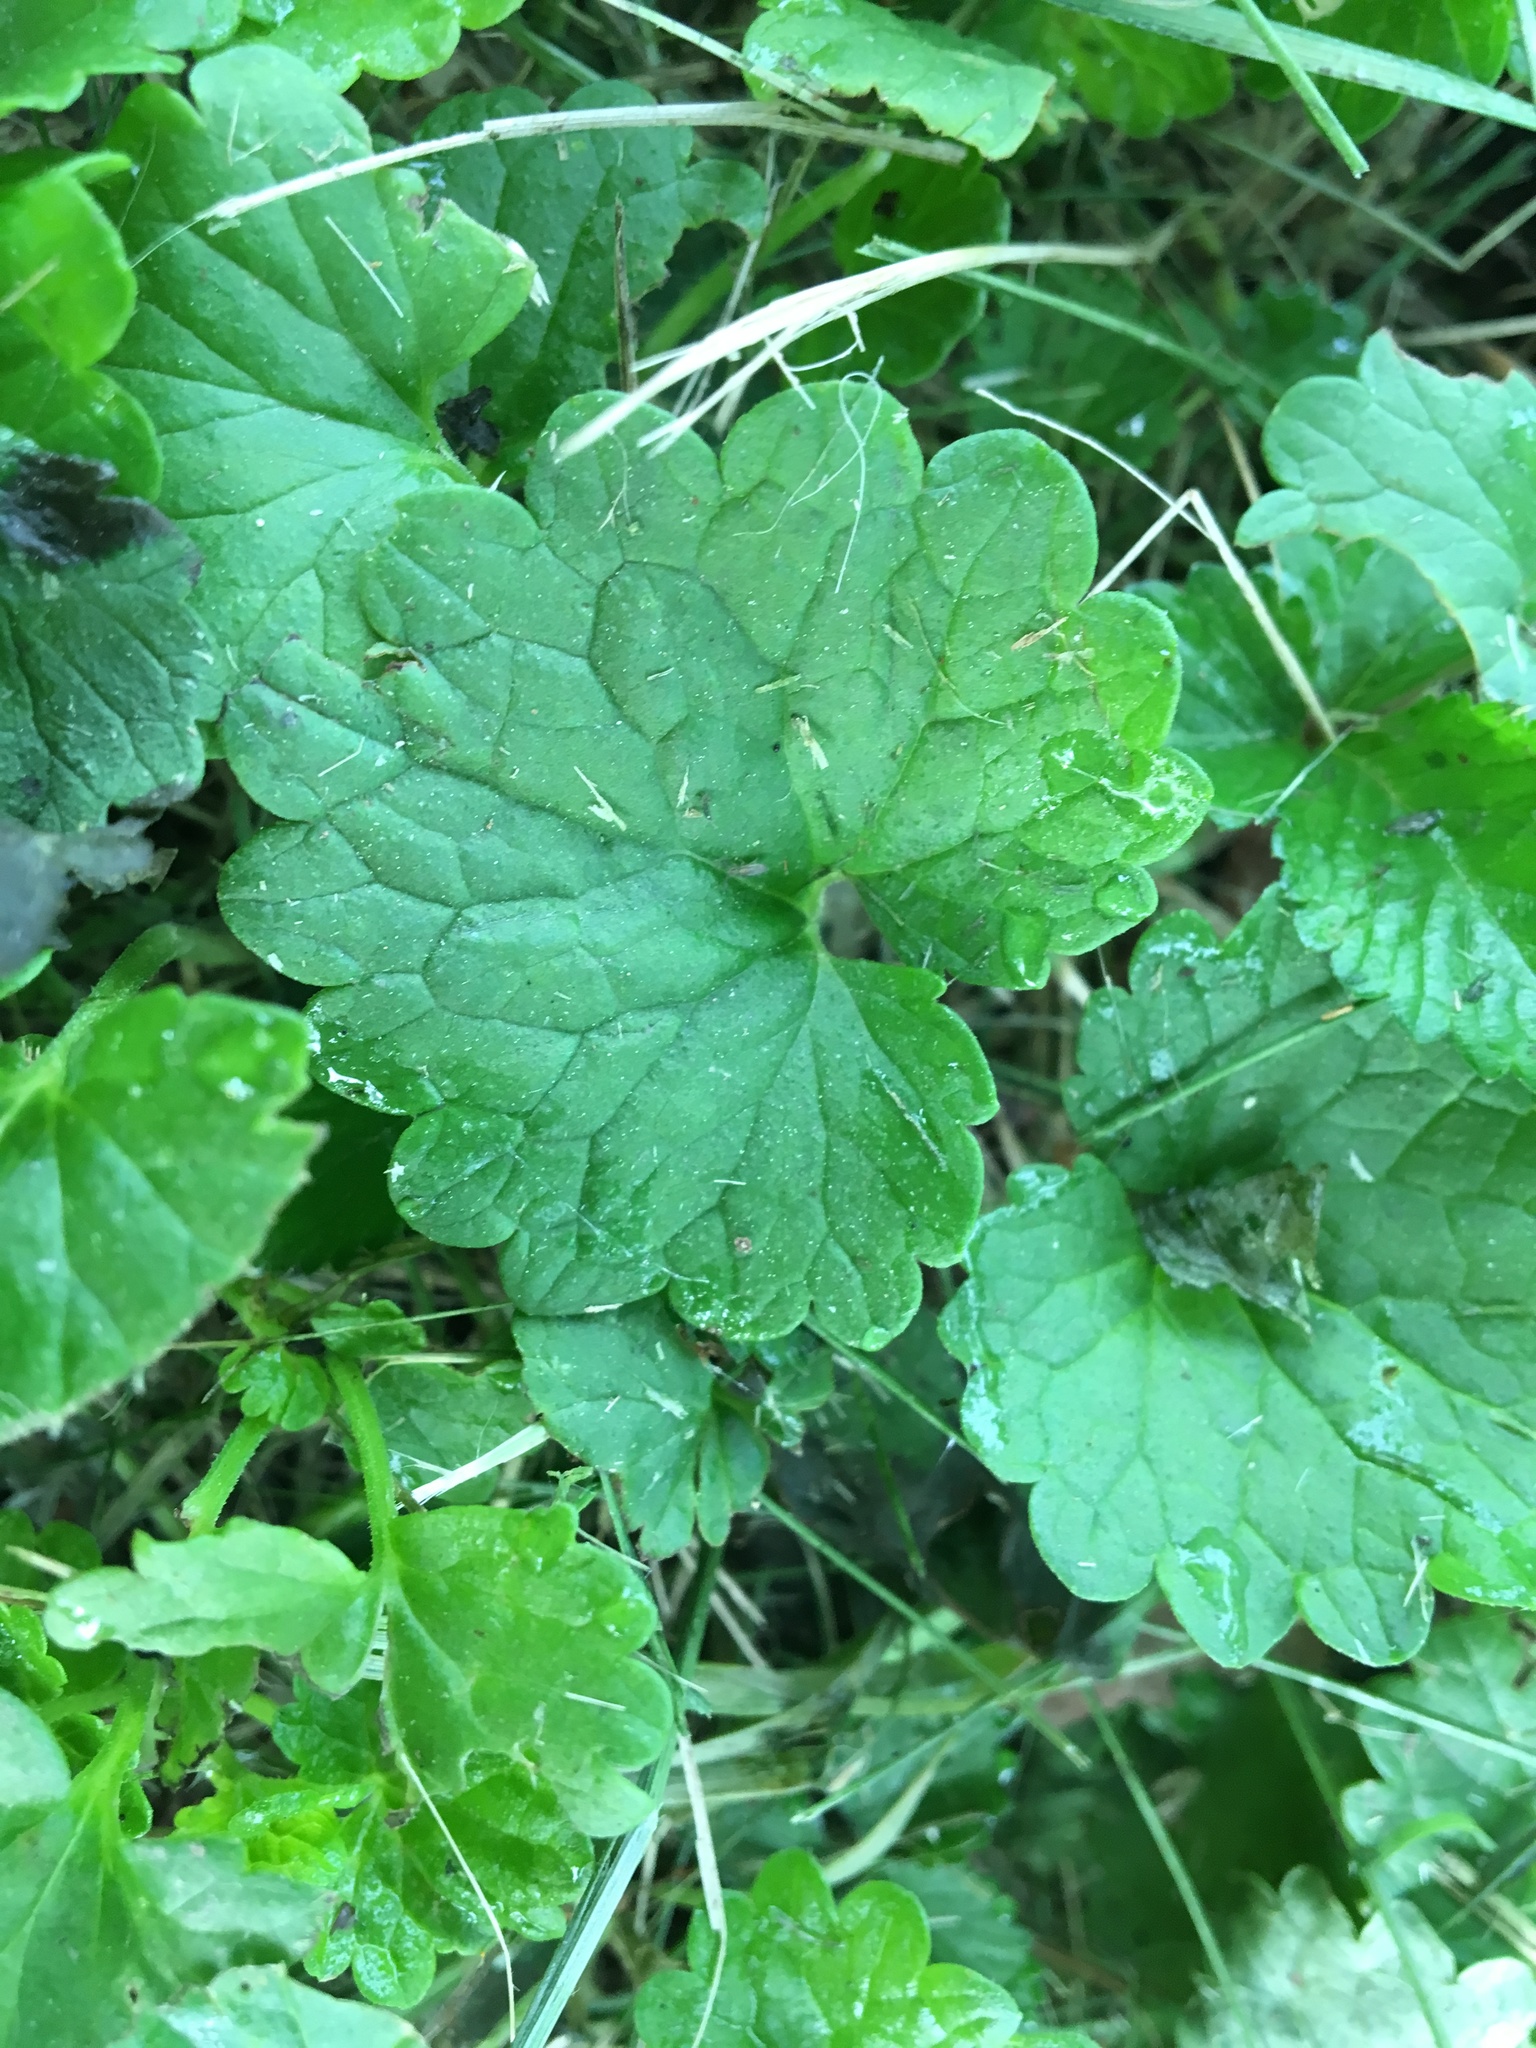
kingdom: Plantae
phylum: Tracheophyta
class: Magnoliopsida
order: Lamiales
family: Lamiaceae
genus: Glechoma
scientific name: Glechoma hederacea
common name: Ground ivy
